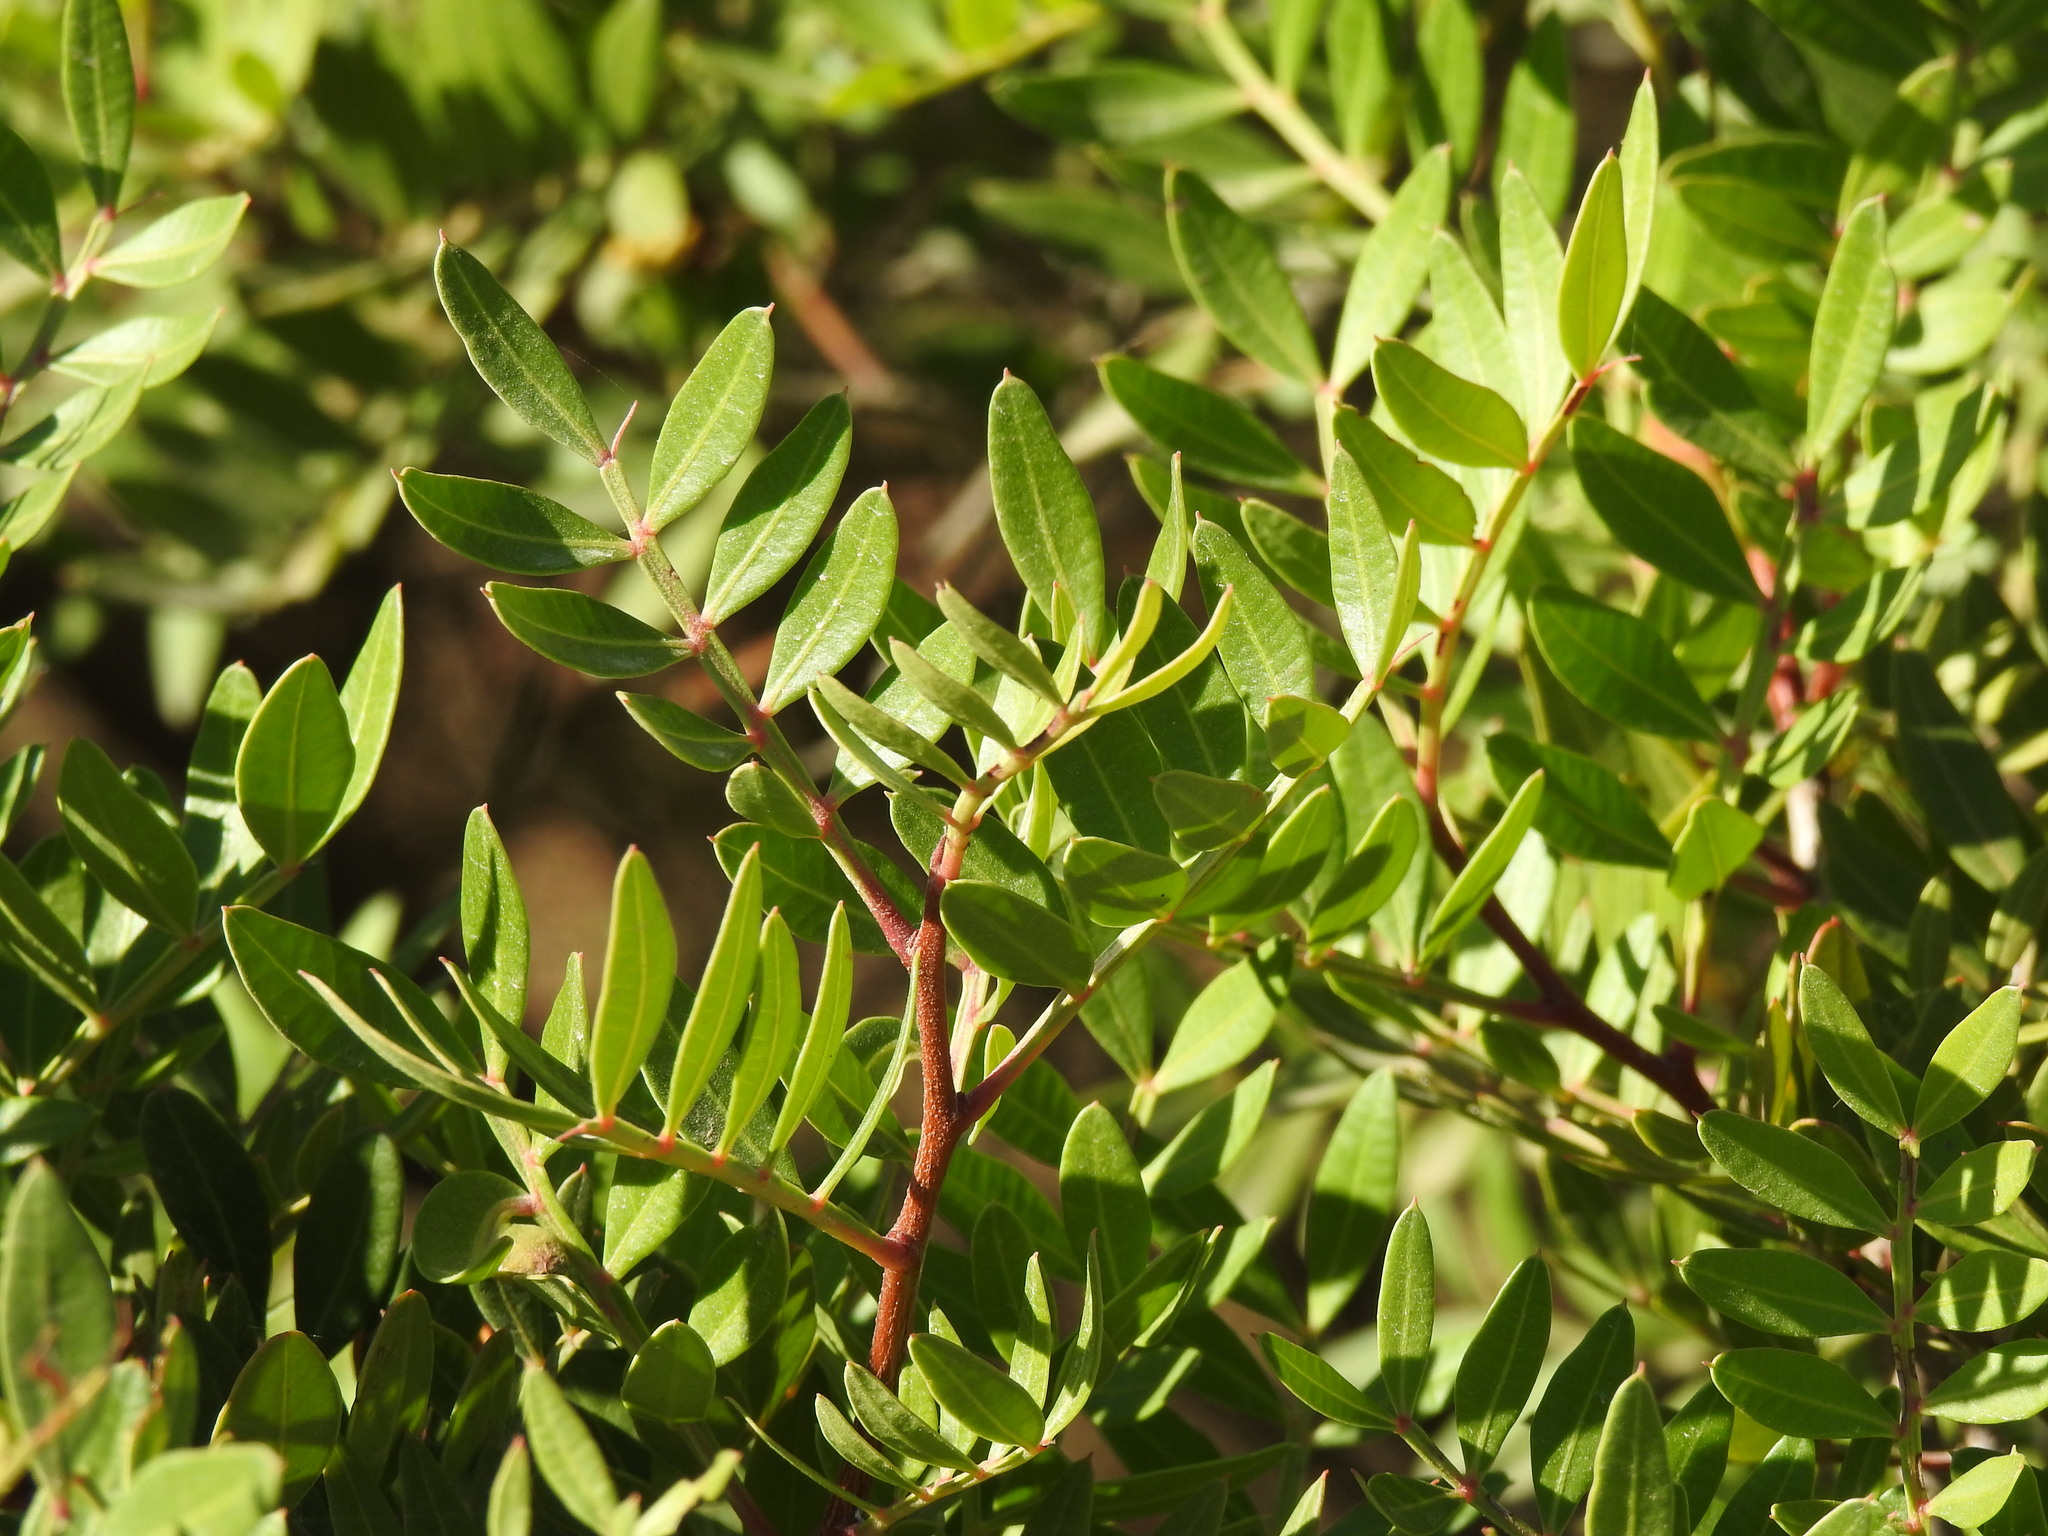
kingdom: Plantae
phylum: Tracheophyta
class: Magnoliopsida
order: Sapindales
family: Anacardiaceae
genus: Pistacia
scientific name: Pistacia lentiscus
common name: Lentisk
